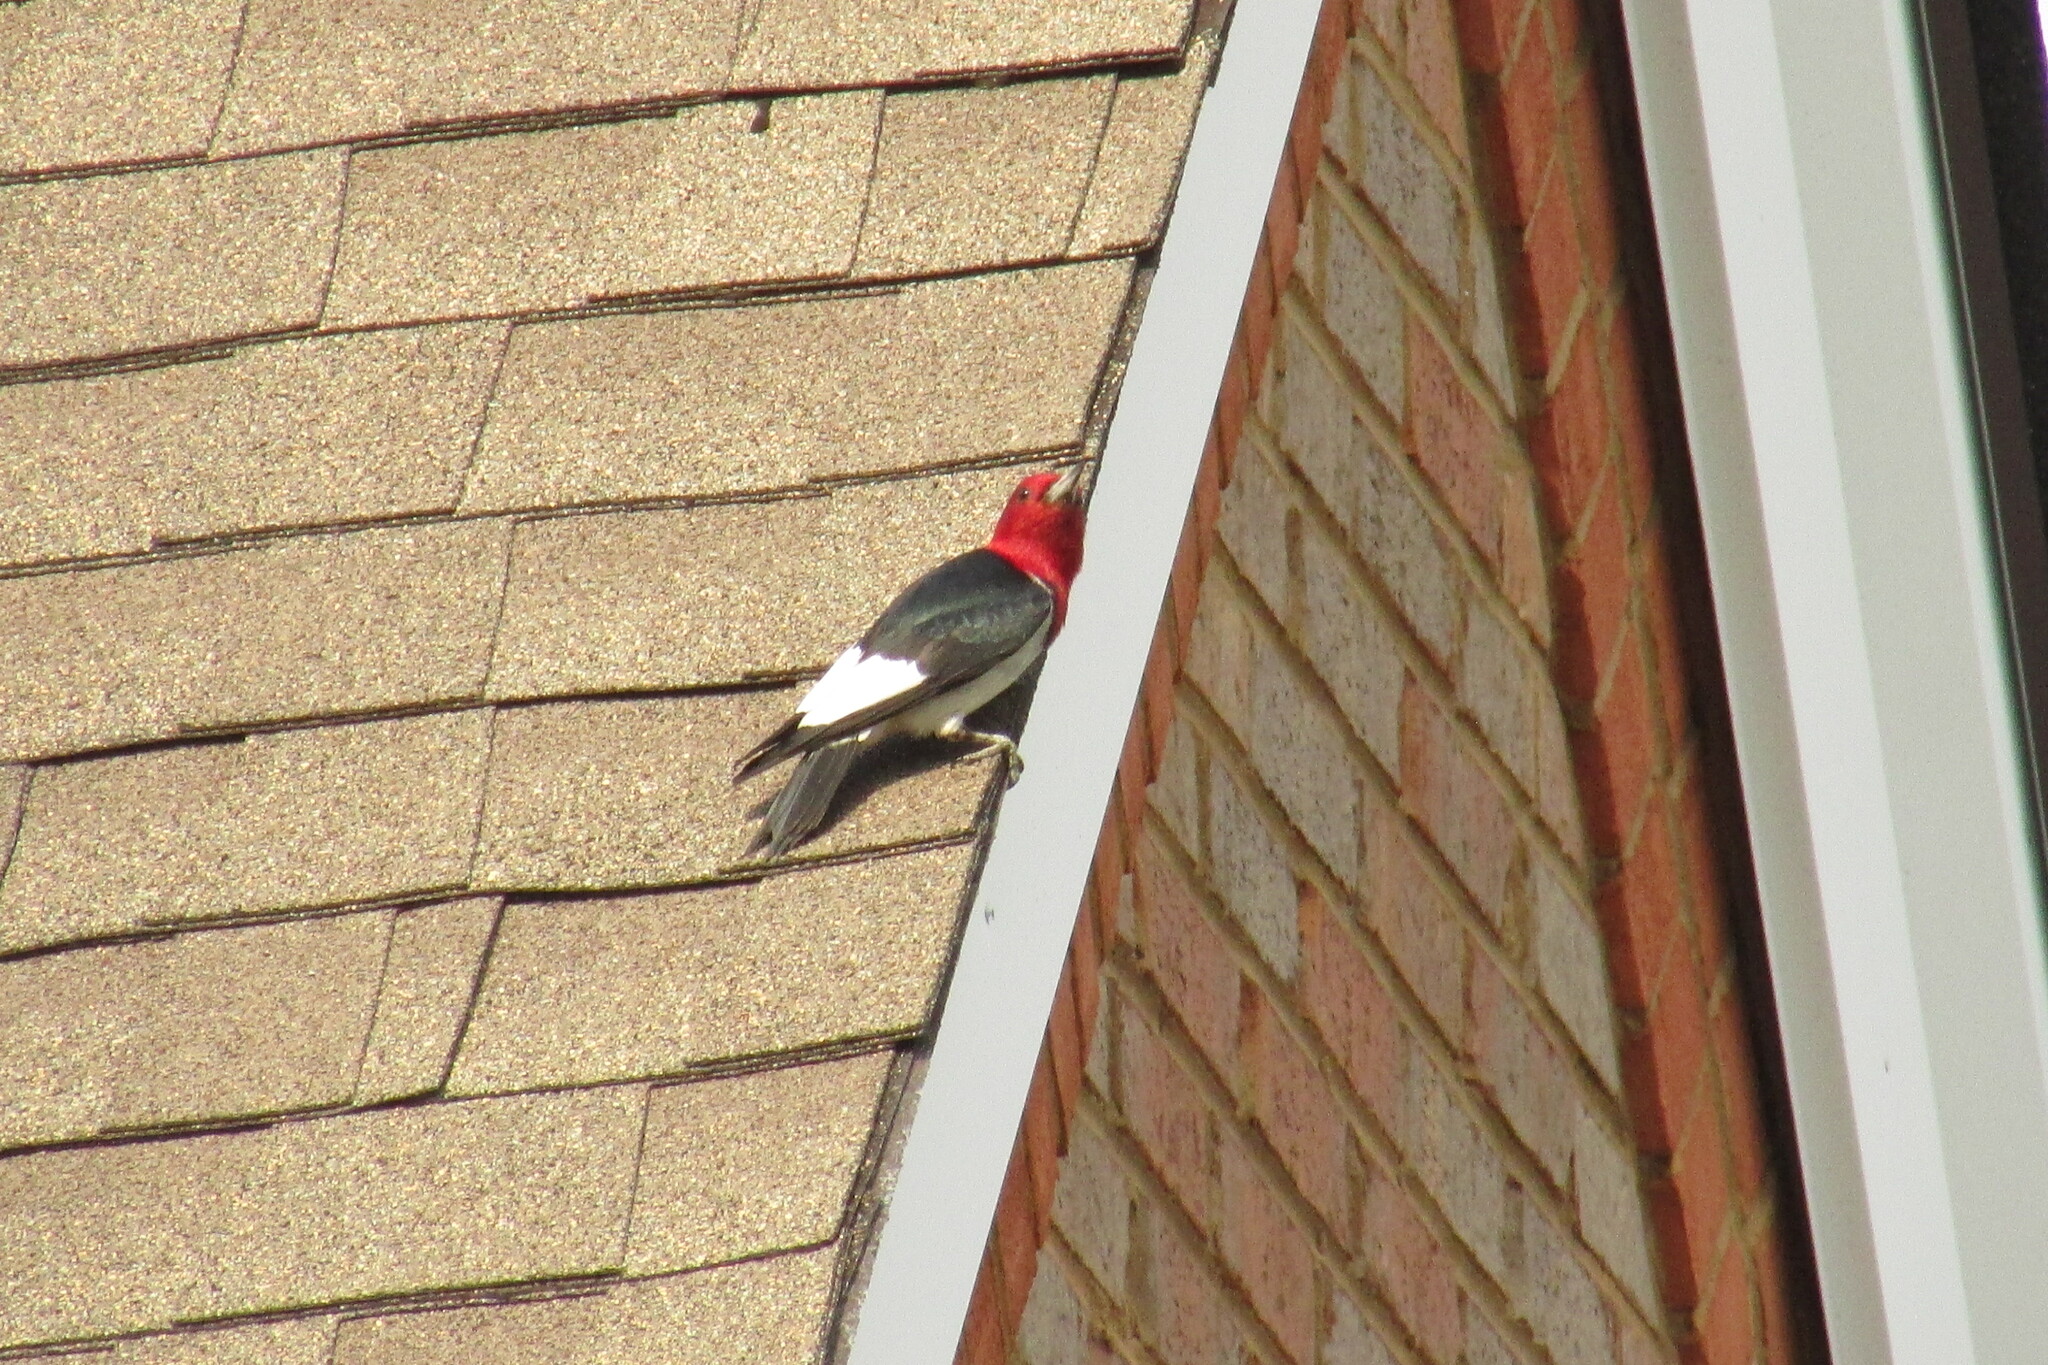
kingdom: Animalia
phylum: Chordata
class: Aves
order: Piciformes
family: Picidae
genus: Melanerpes
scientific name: Melanerpes erythrocephalus
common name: Red-headed woodpecker
